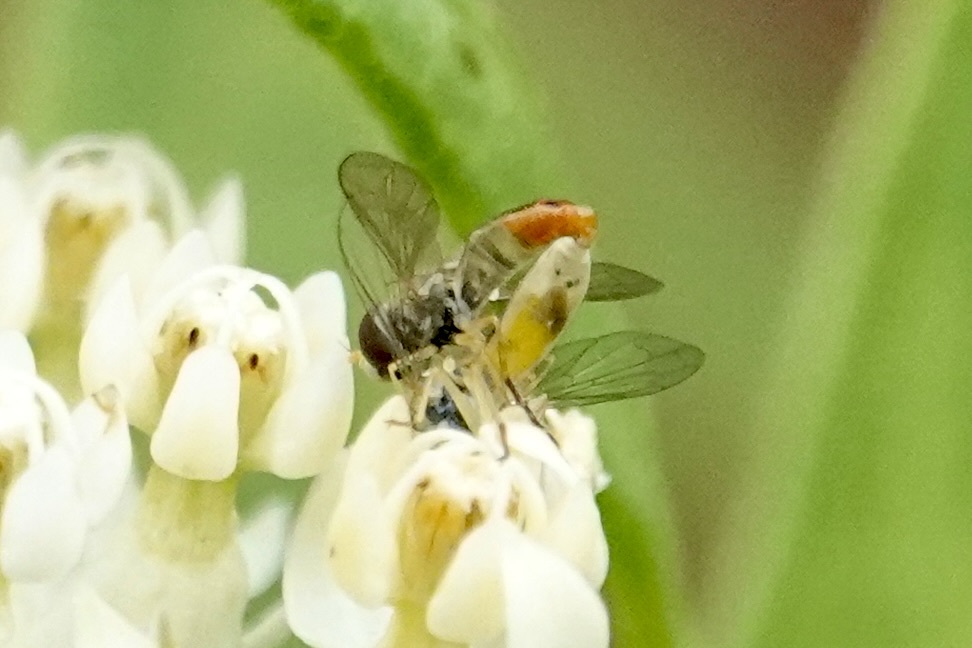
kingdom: Animalia
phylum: Arthropoda
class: Insecta
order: Diptera
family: Syrphidae
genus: Toxomerus
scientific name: Toxomerus marginatus
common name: Syrphid fly
